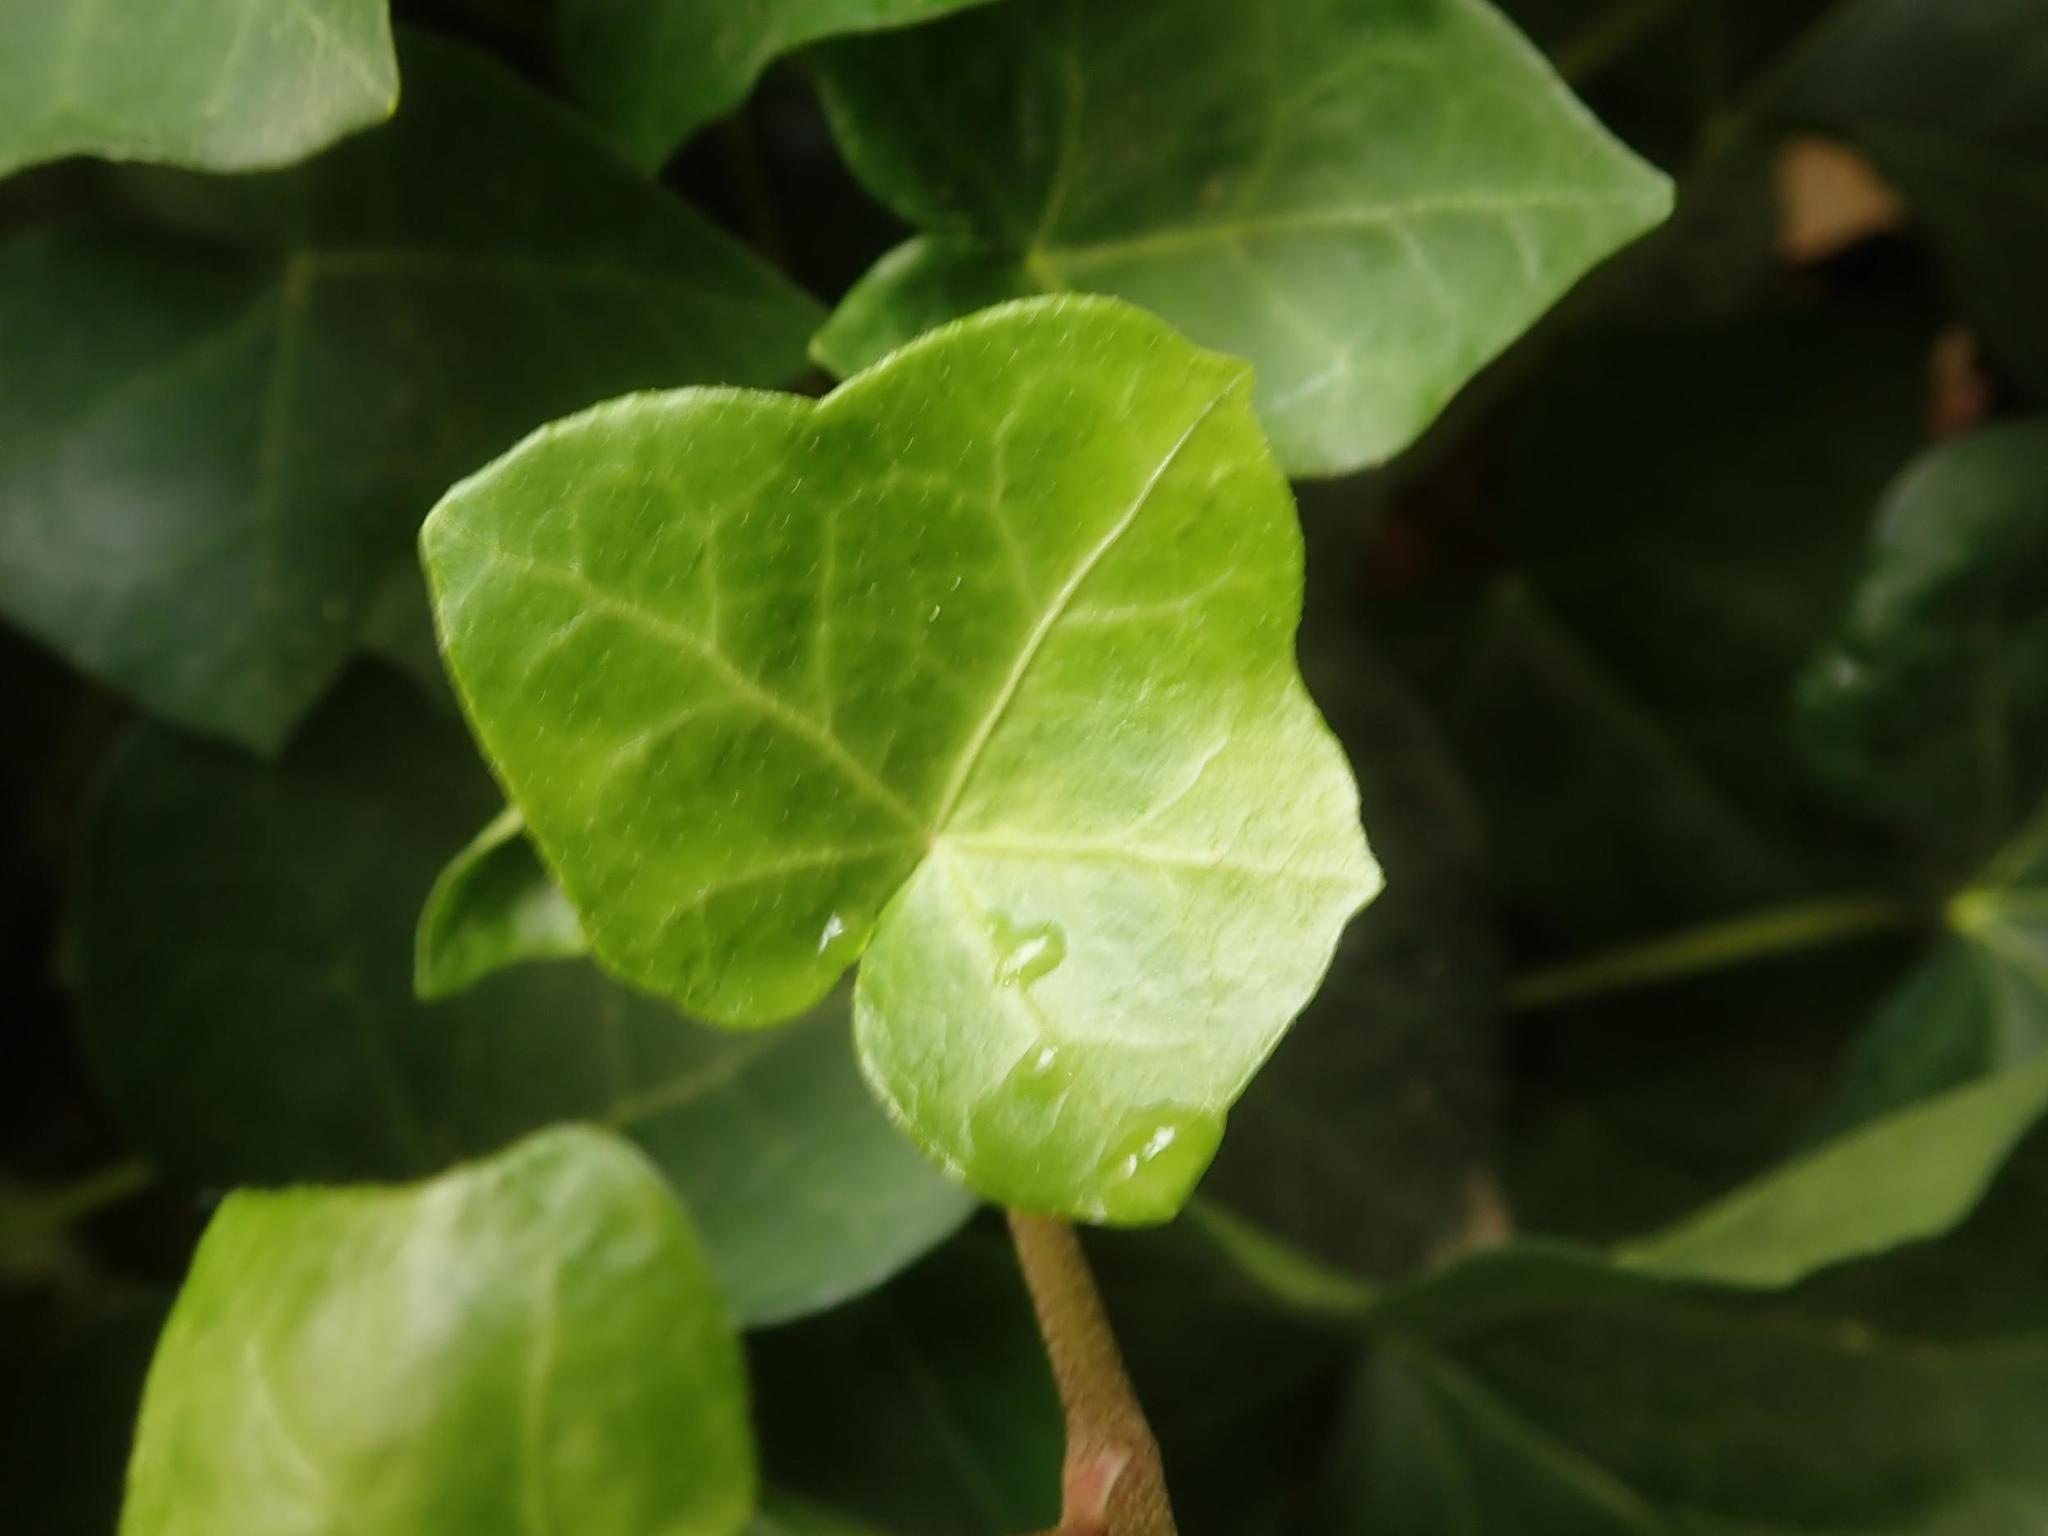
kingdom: Plantae
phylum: Tracheophyta
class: Magnoliopsida
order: Apiales
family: Araliaceae
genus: Hedera
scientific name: Hedera helix
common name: Ivy
